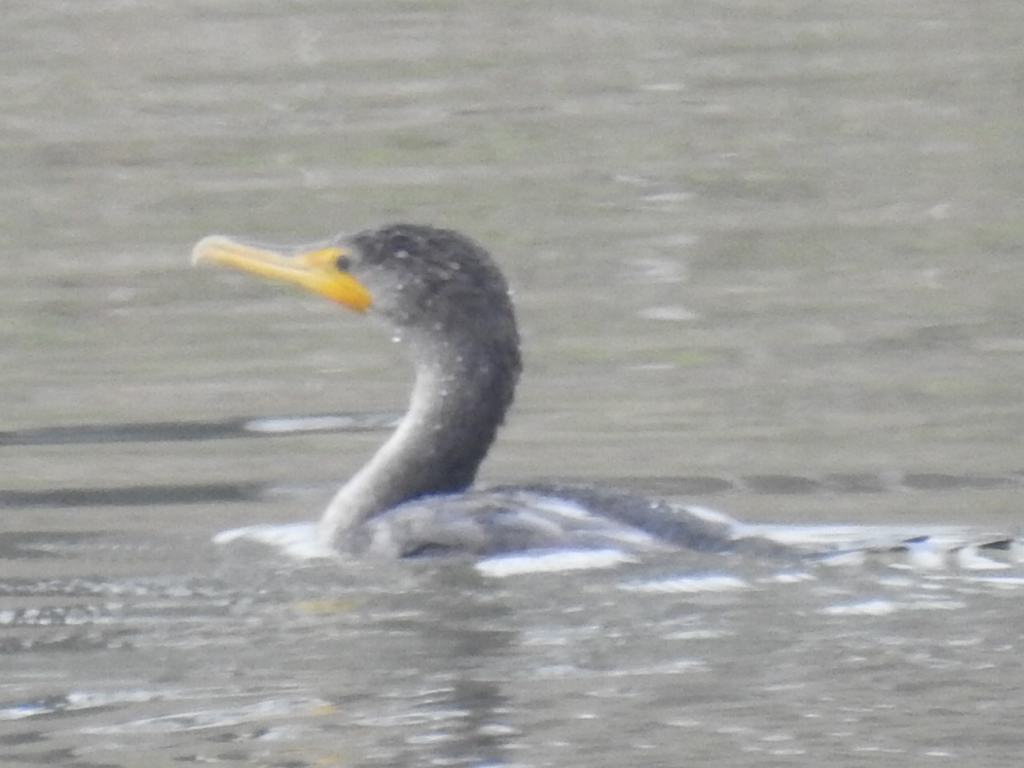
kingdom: Animalia
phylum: Chordata
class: Aves
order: Suliformes
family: Phalacrocoracidae
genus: Phalacrocorax
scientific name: Phalacrocorax auritus
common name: Double-crested cormorant
